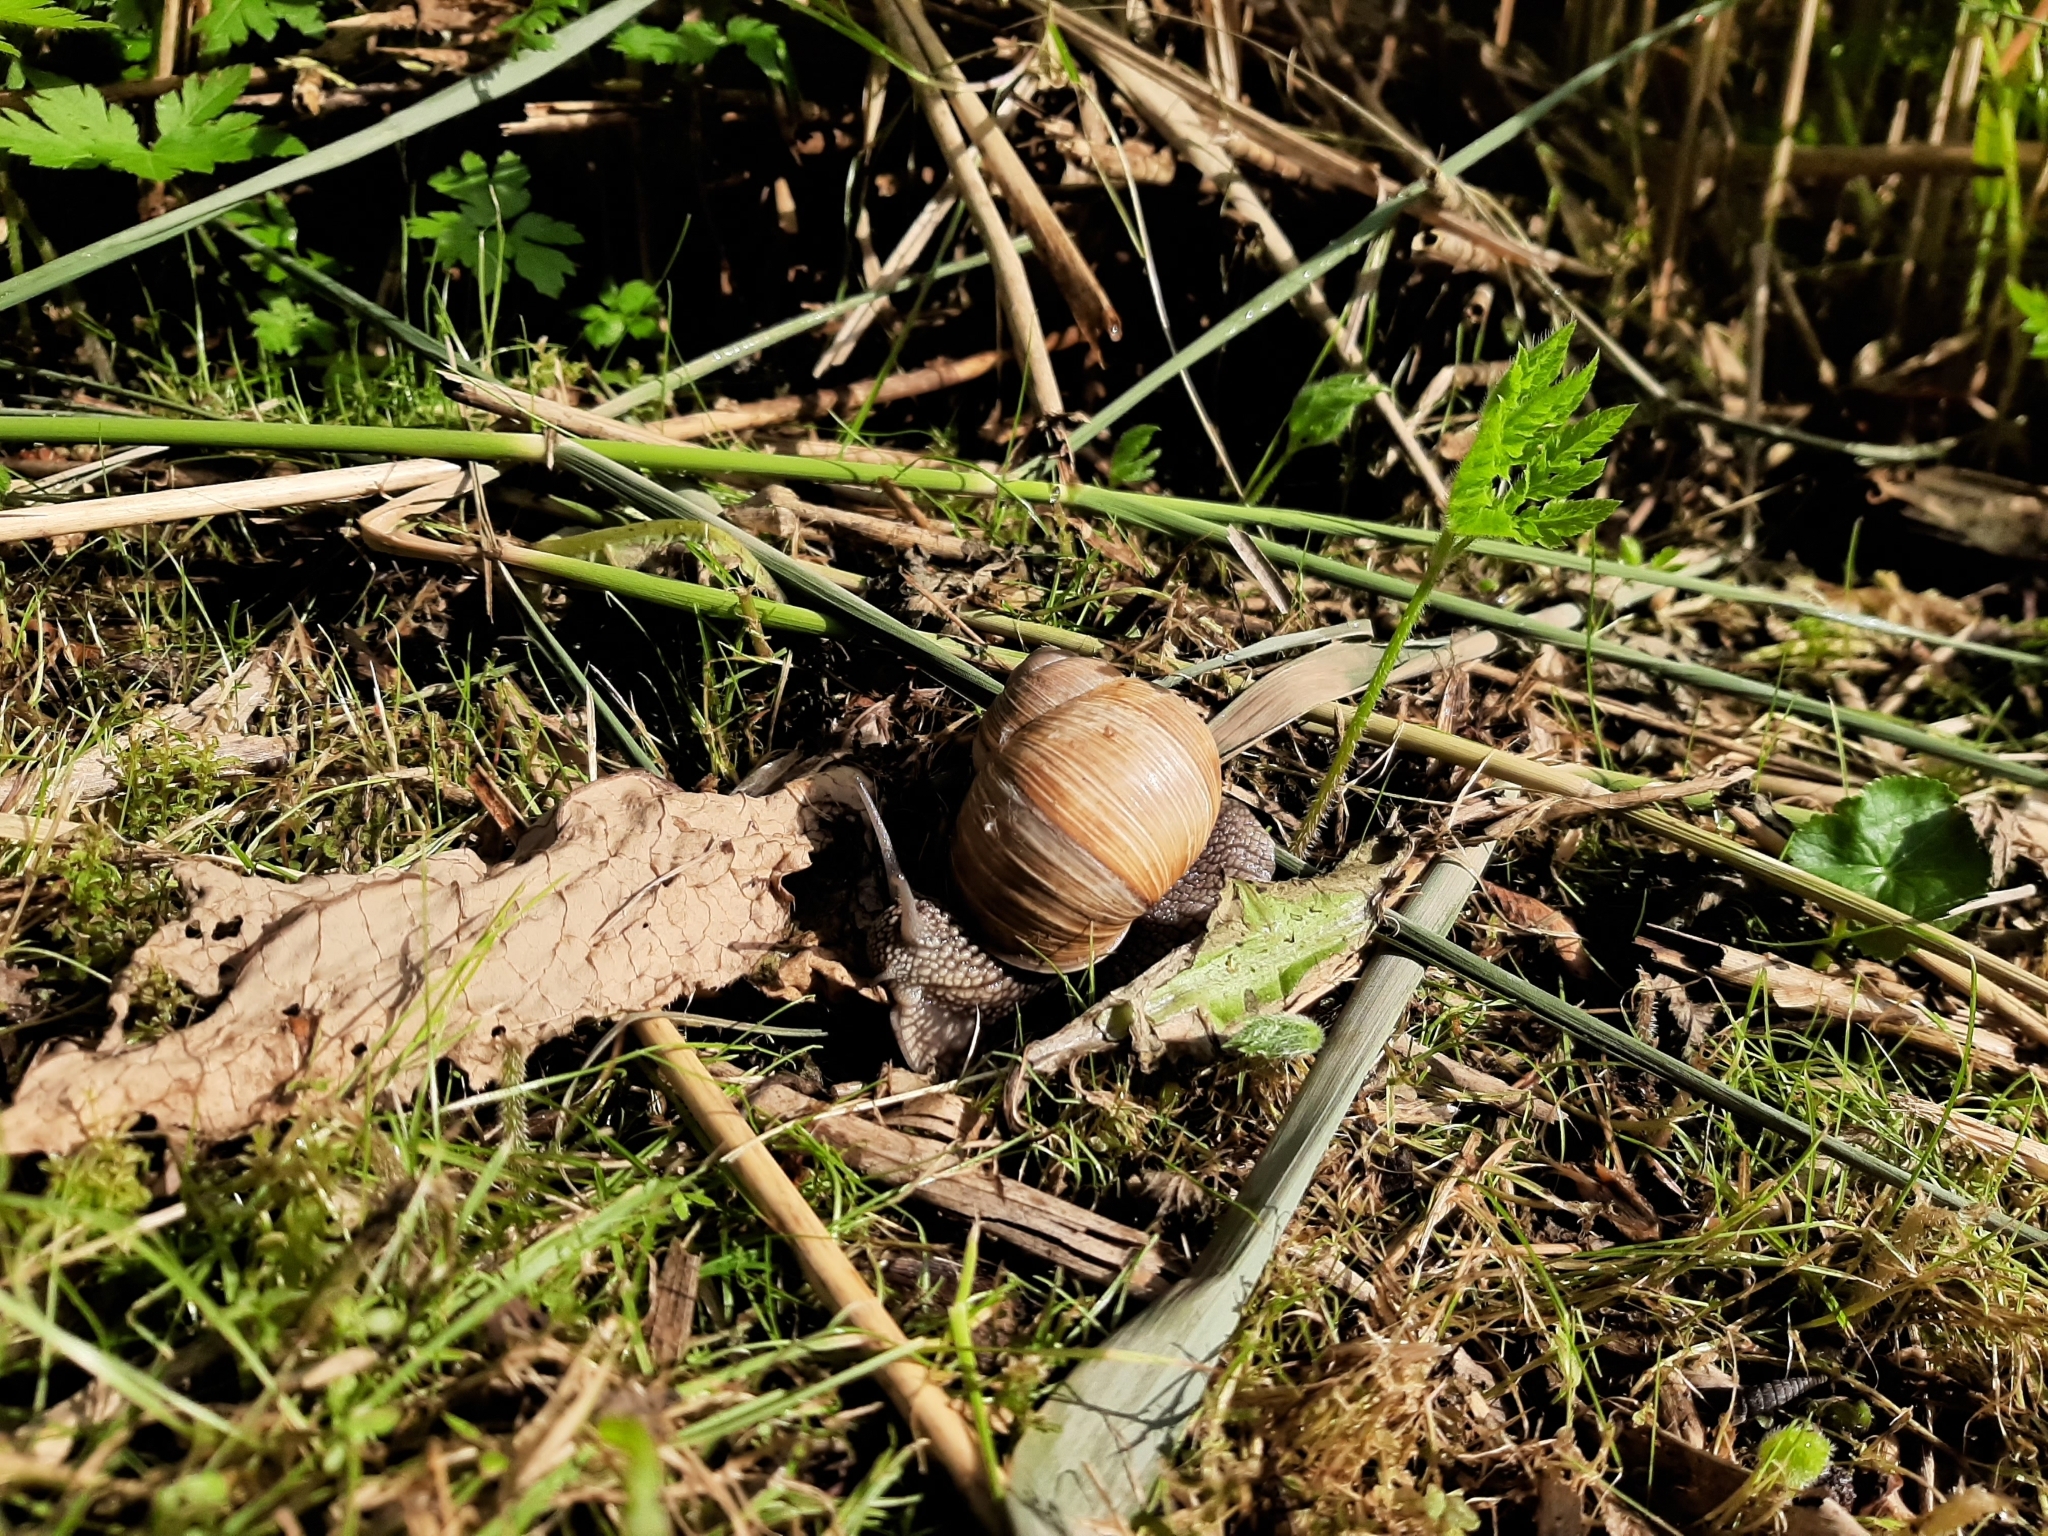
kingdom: Animalia
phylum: Mollusca
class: Gastropoda
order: Stylommatophora
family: Helicidae
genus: Helix
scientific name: Helix pomatia
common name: Roman snail
